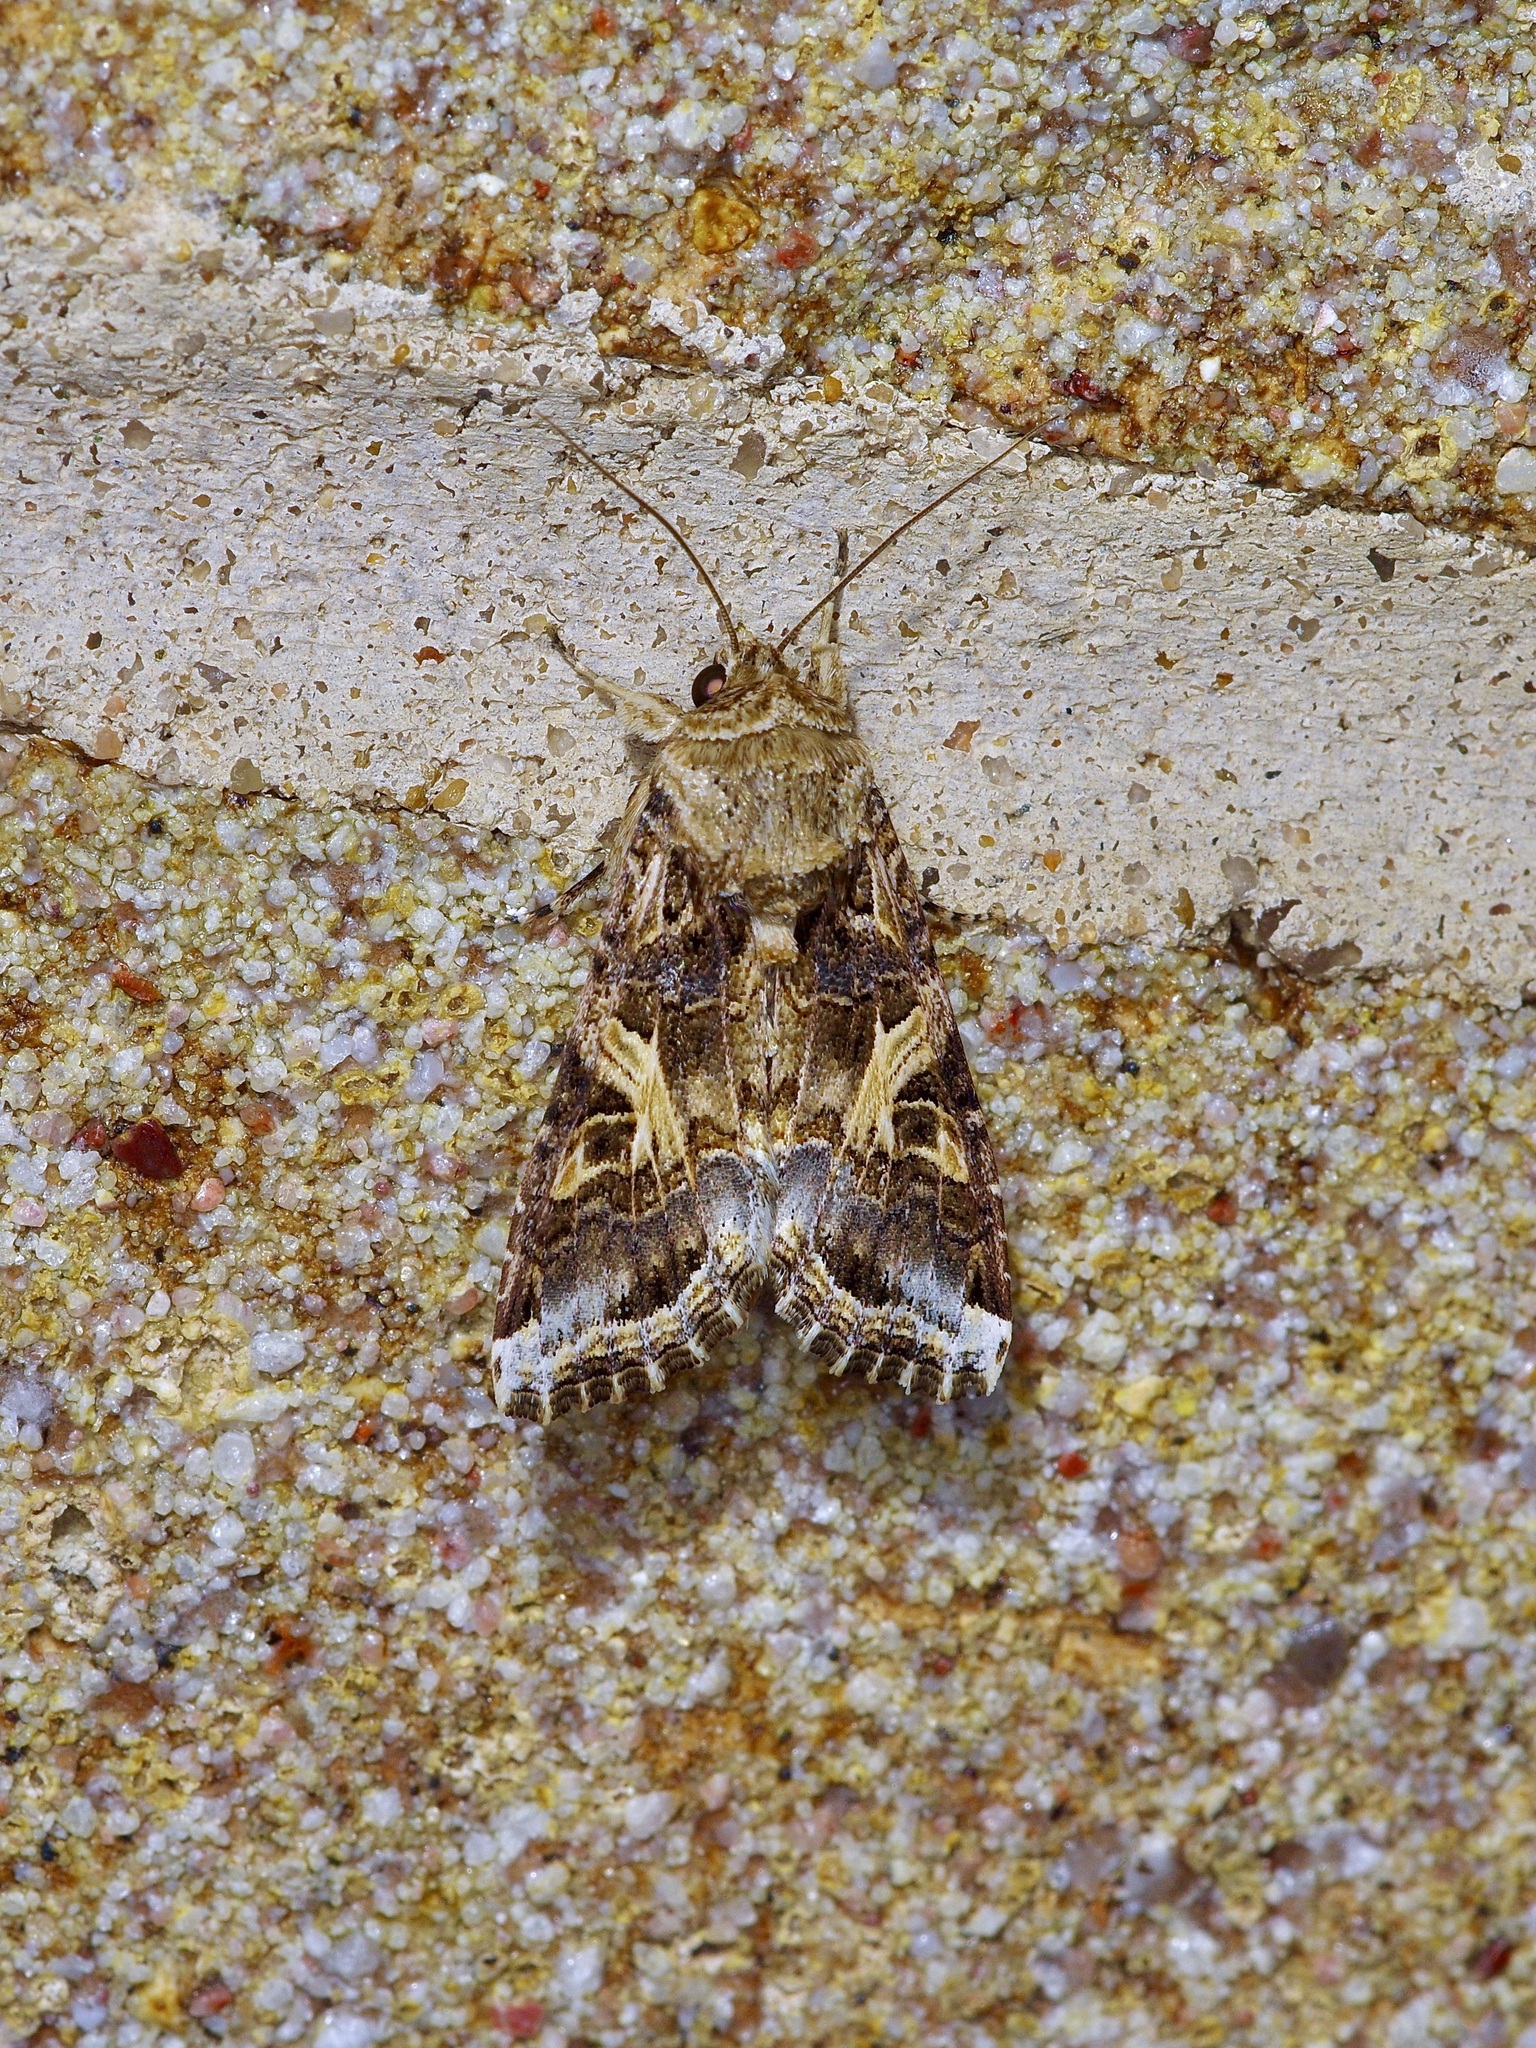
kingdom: Animalia
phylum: Arthropoda
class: Insecta
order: Lepidoptera
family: Noctuidae
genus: Spodoptera
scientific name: Spodoptera ornithogalli
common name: Yellow-striped armyworm
